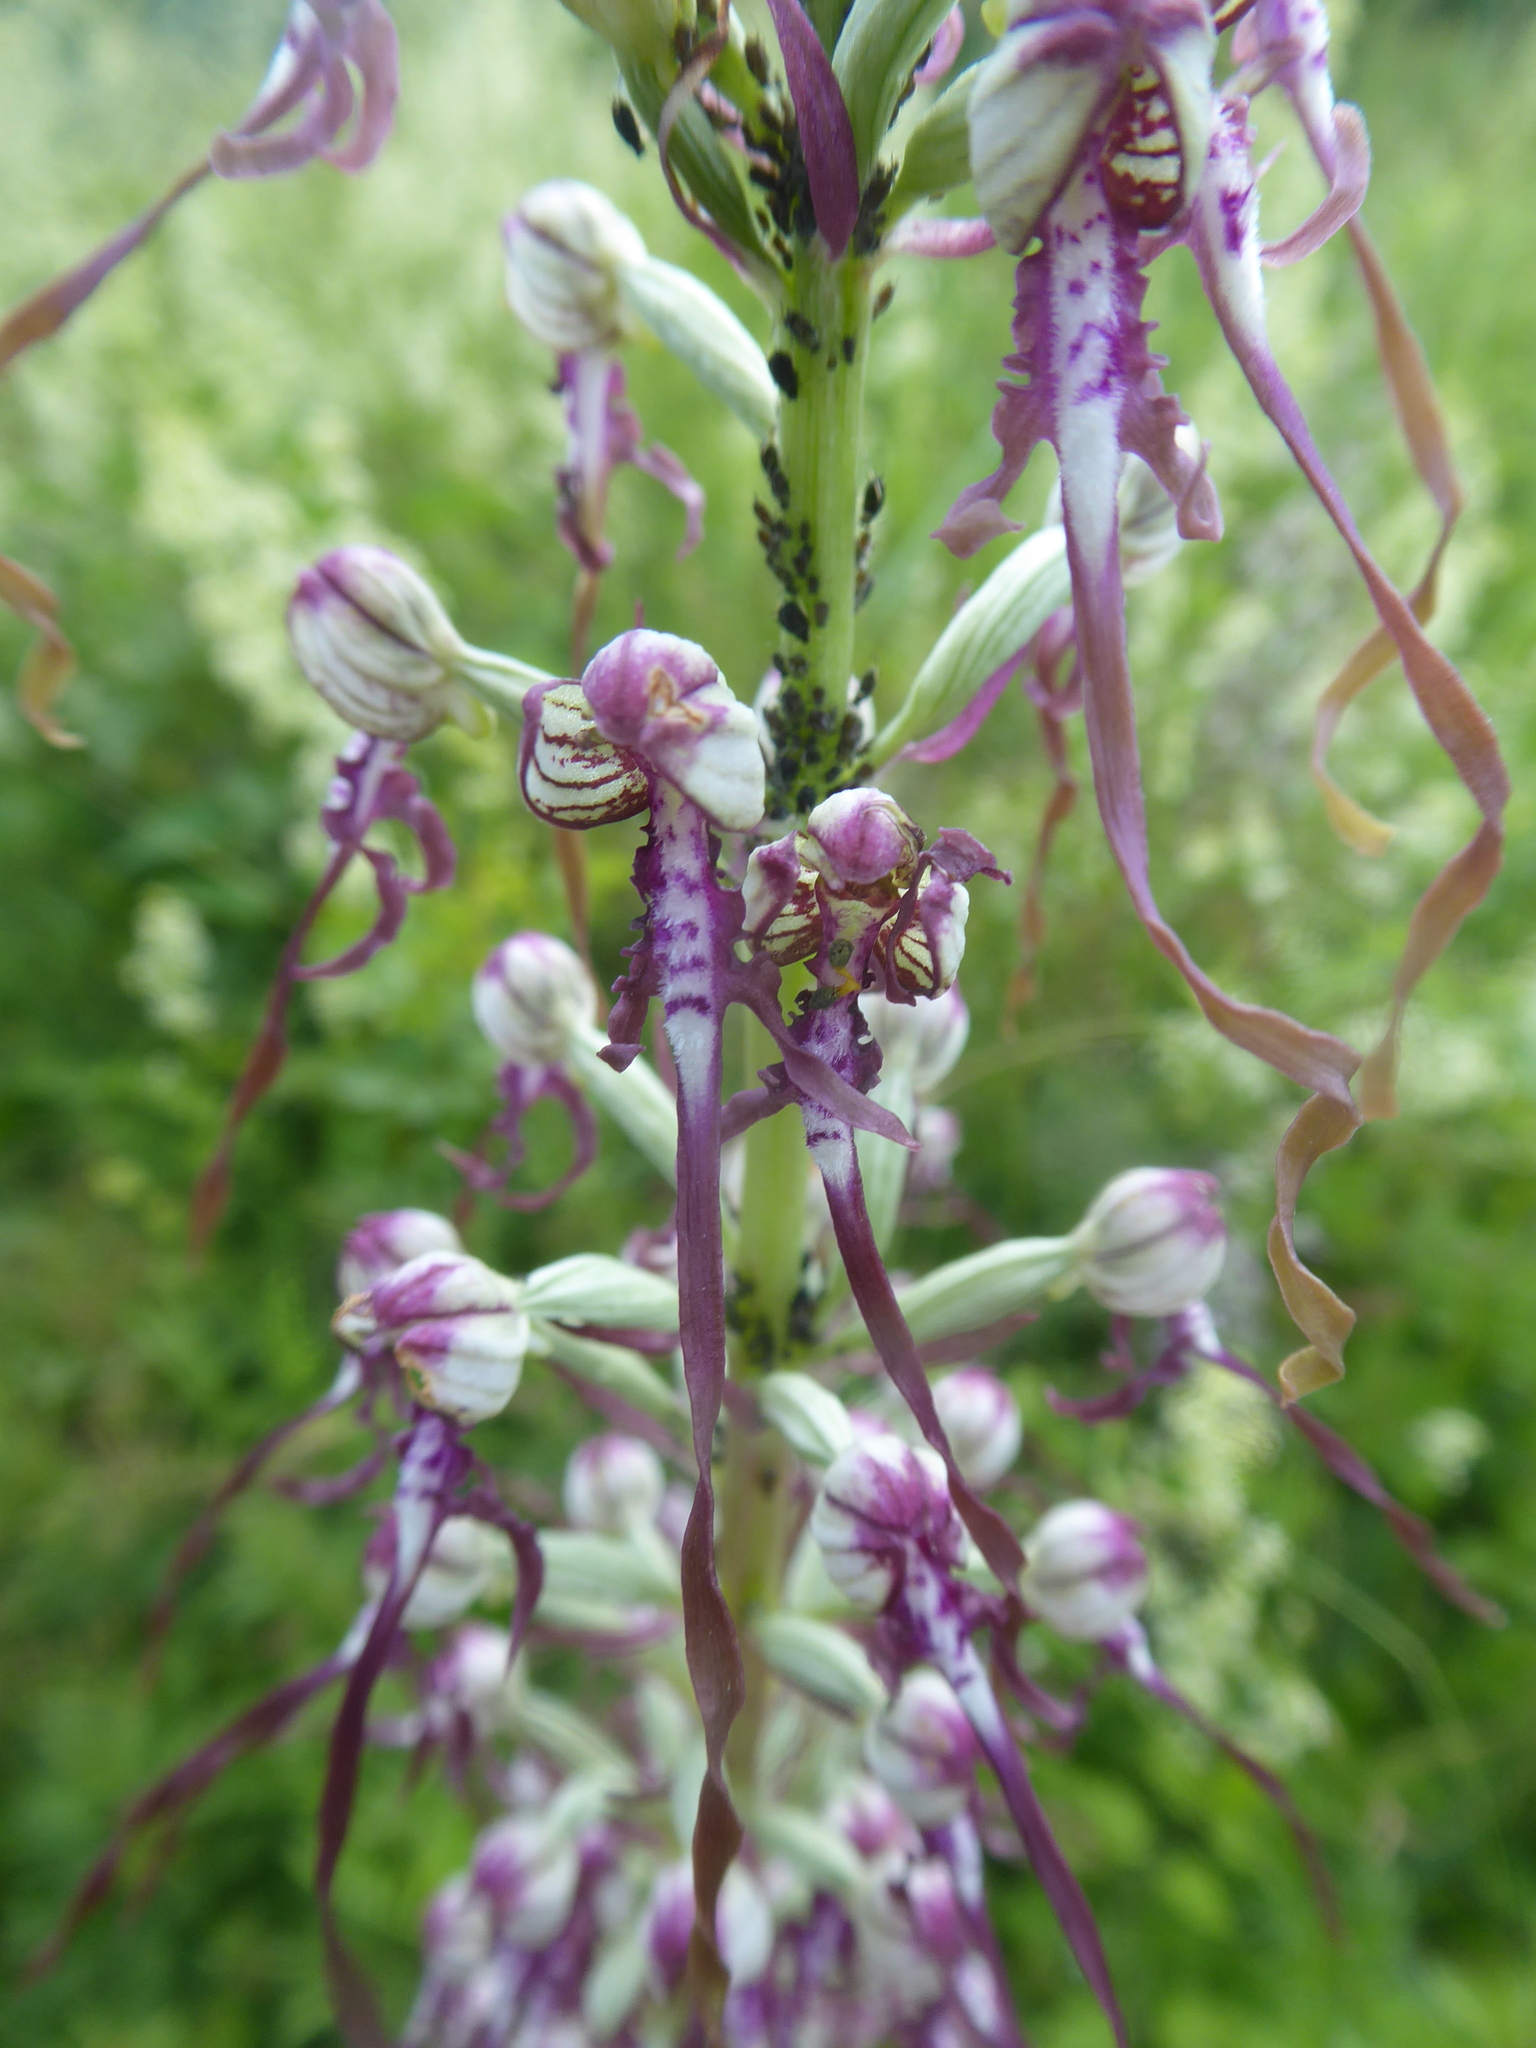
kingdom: Plantae
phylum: Tracheophyta
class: Liliopsida
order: Asparagales
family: Orchidaceae
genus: Himantoglossum
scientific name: Himantoglossum adriaticum
